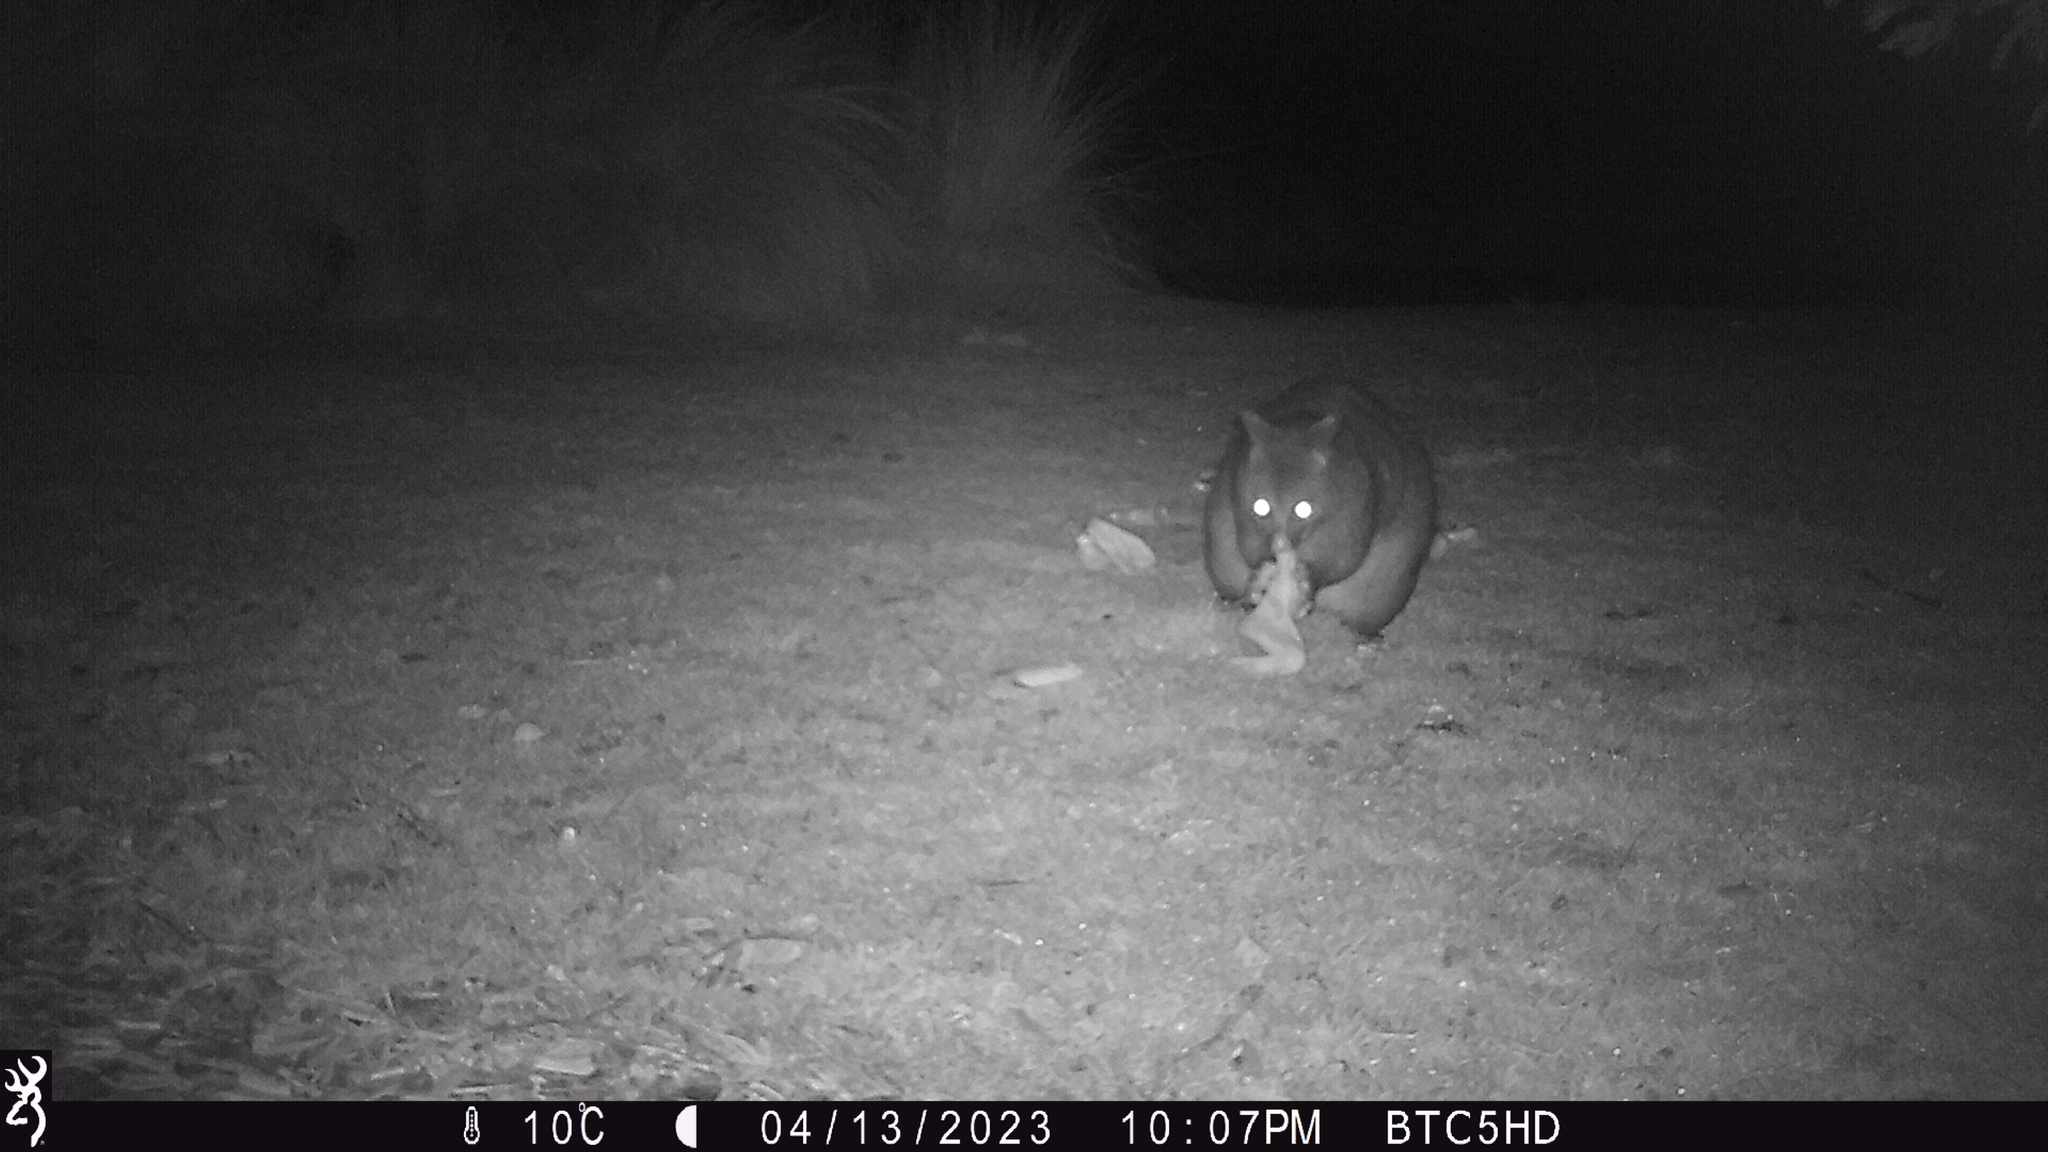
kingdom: Animalia
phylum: Chordata
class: Mammalia
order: Diprotodontia
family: Phalangeridae
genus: Trichosurus
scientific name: Trichosurus vulpecula
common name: Common brushtail
